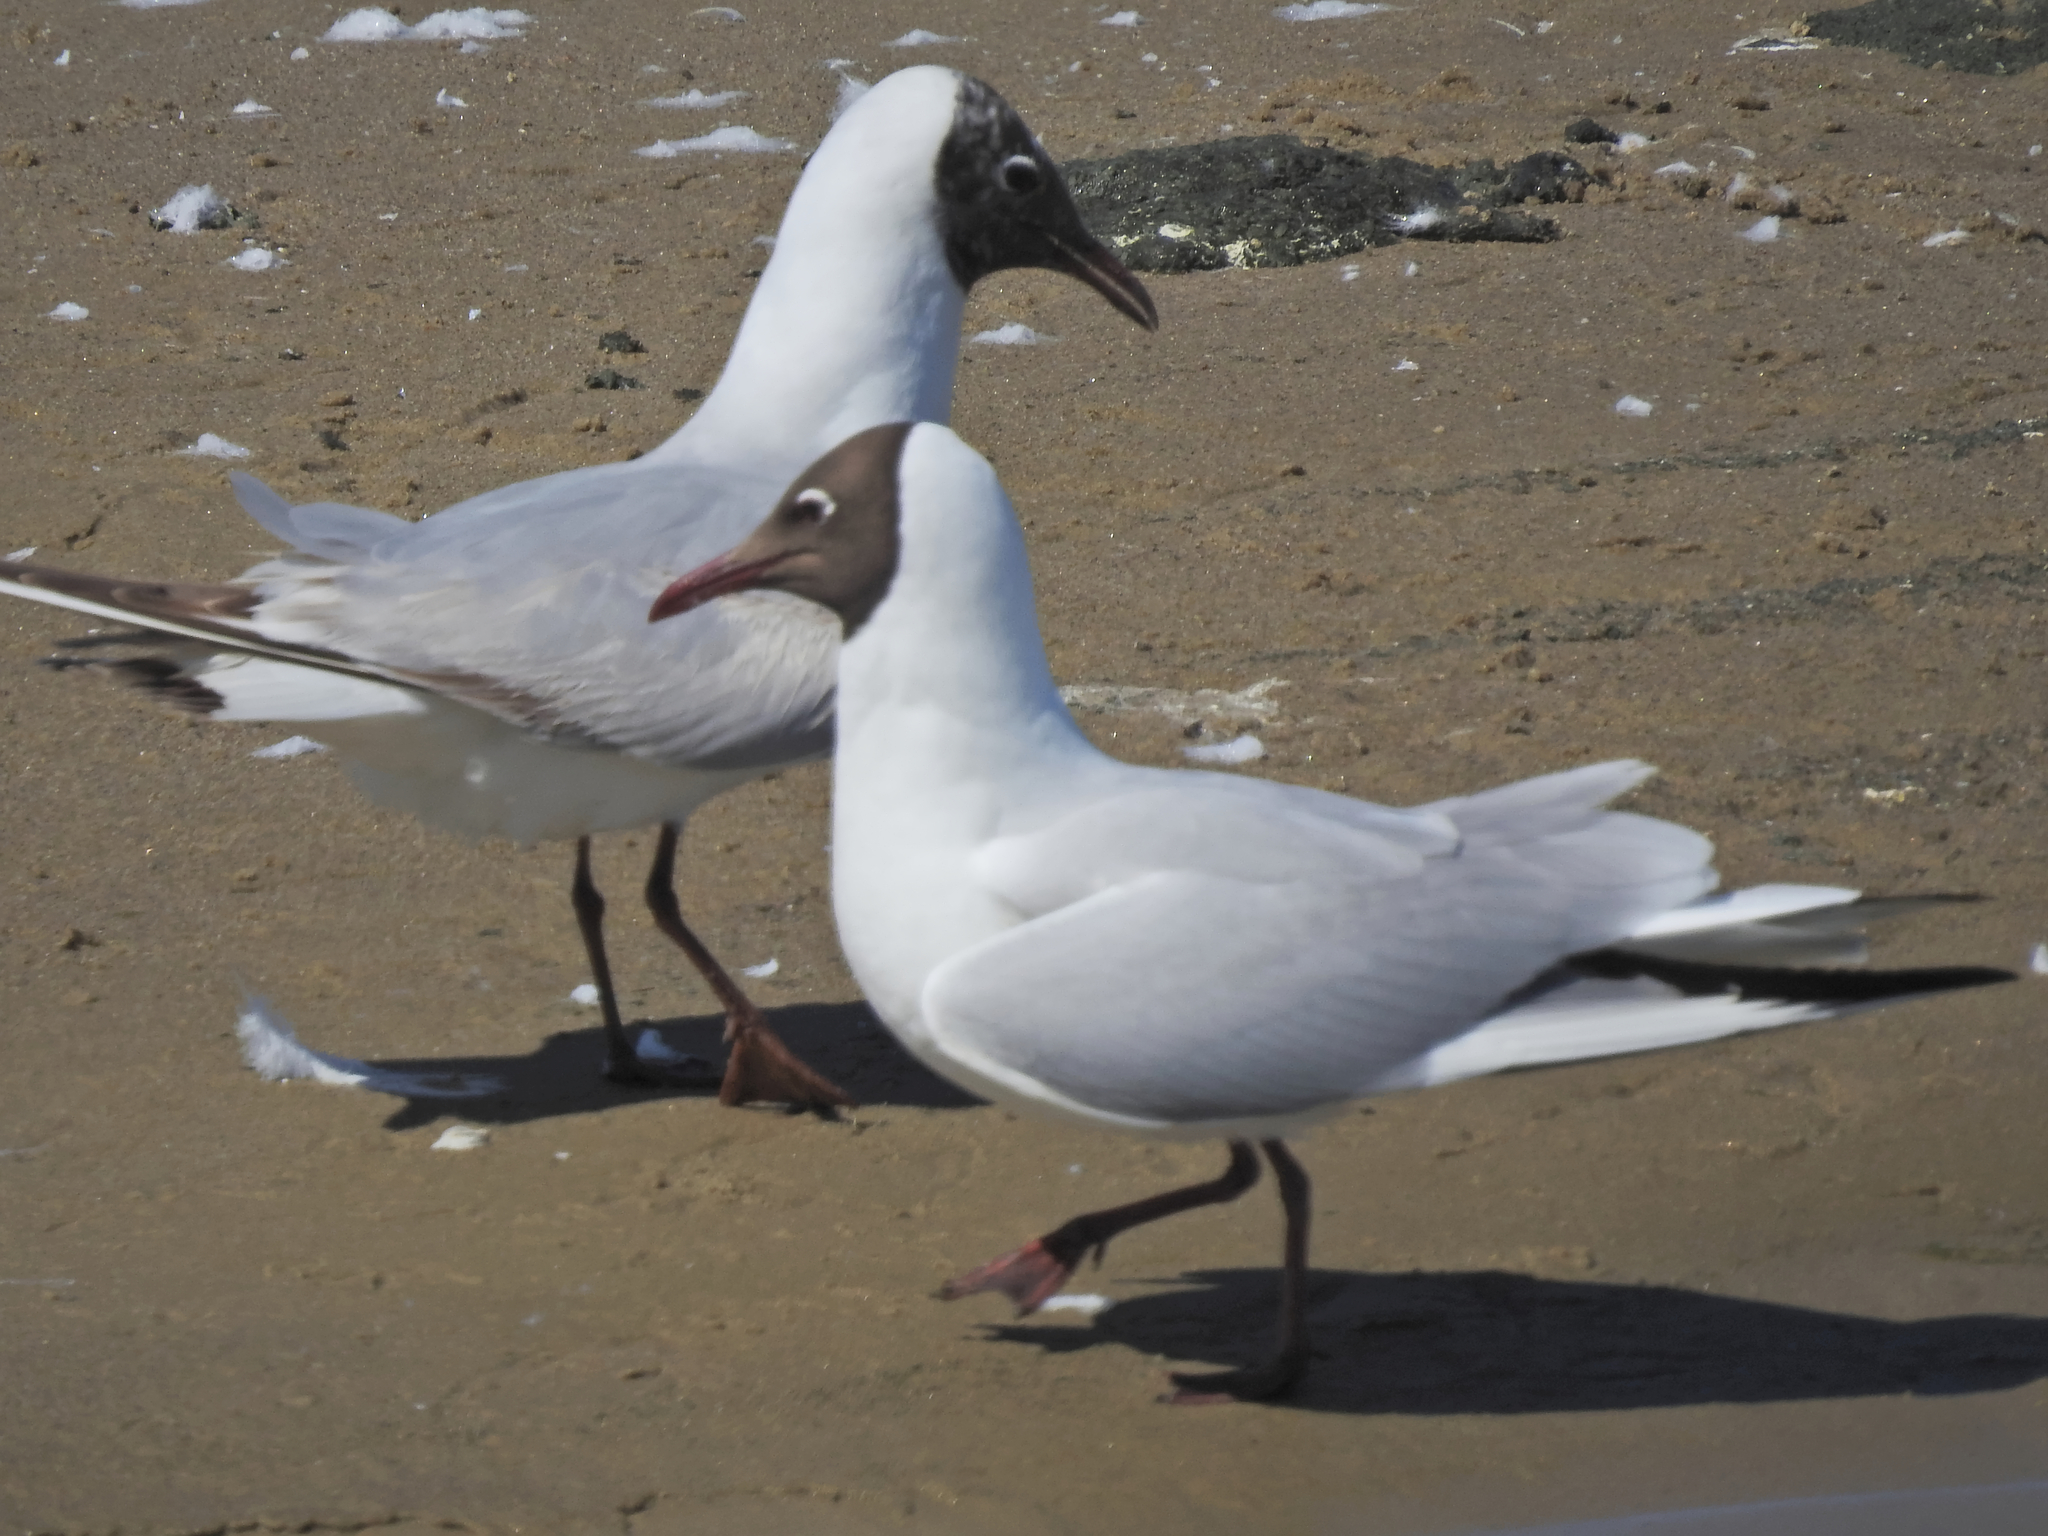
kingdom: Animalia
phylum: Chordata
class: Aves
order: Charadriiformes
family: Laridae
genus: Chroicocephalus
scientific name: Chroicocephalus ridibundus
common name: Black-headed gull
